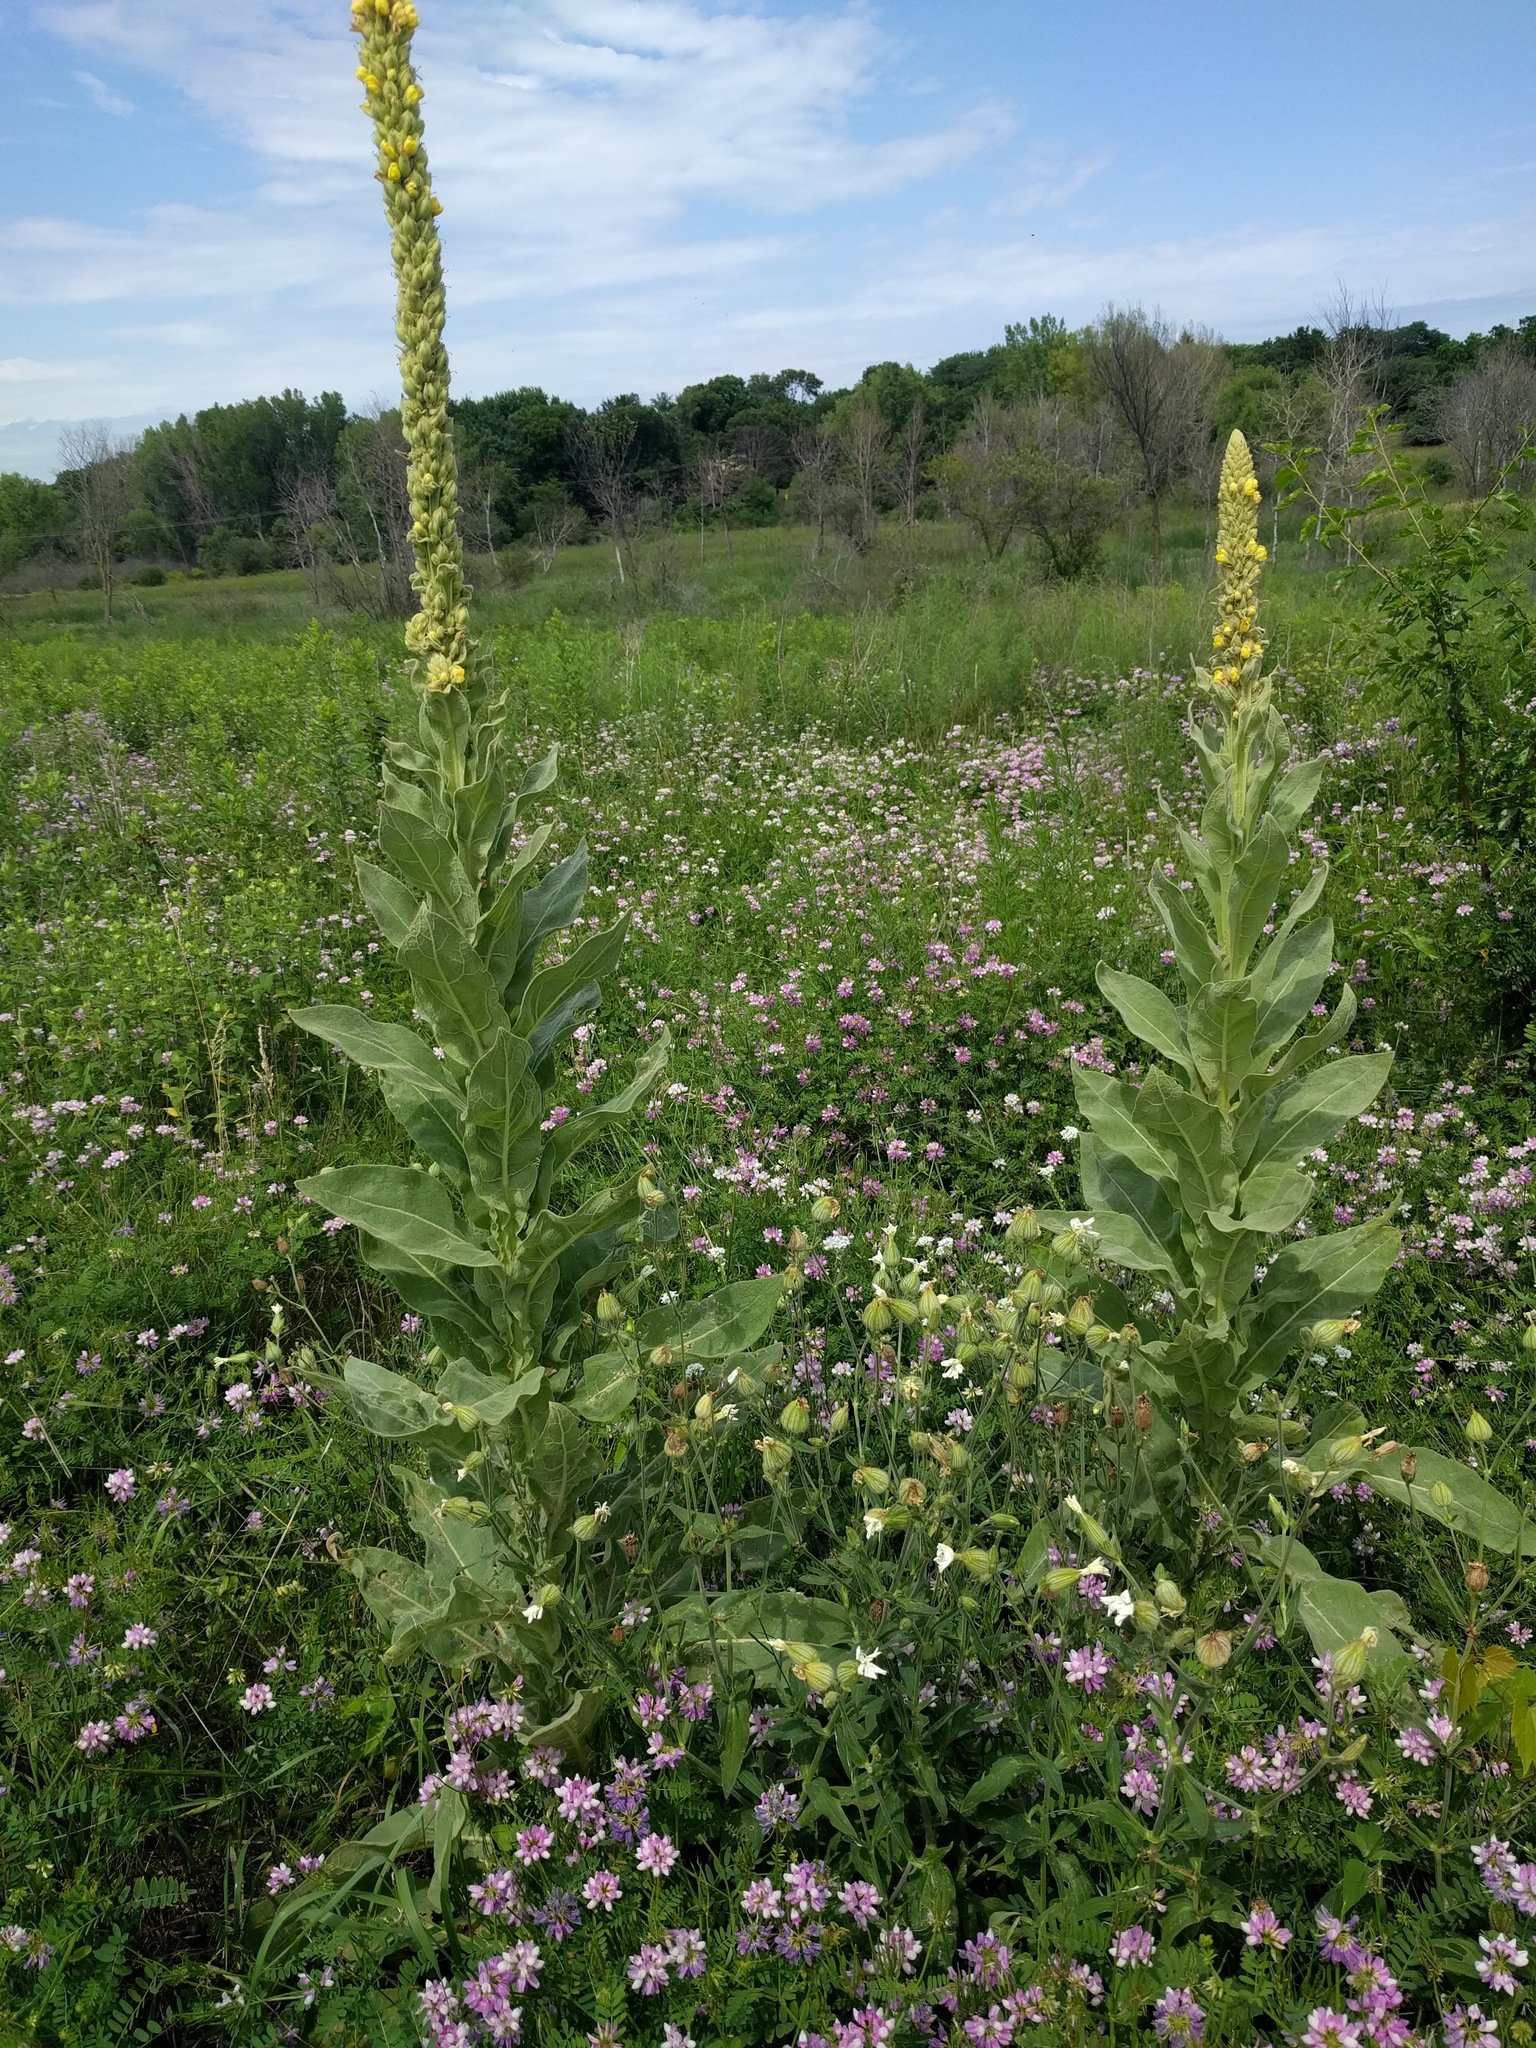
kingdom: Plantae
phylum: Tracheophyta
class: Magnoliopsida
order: Lamiales
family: Scrophulariaceae
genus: Verbascum
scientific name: Verbascum thapsus
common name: Common mullein
